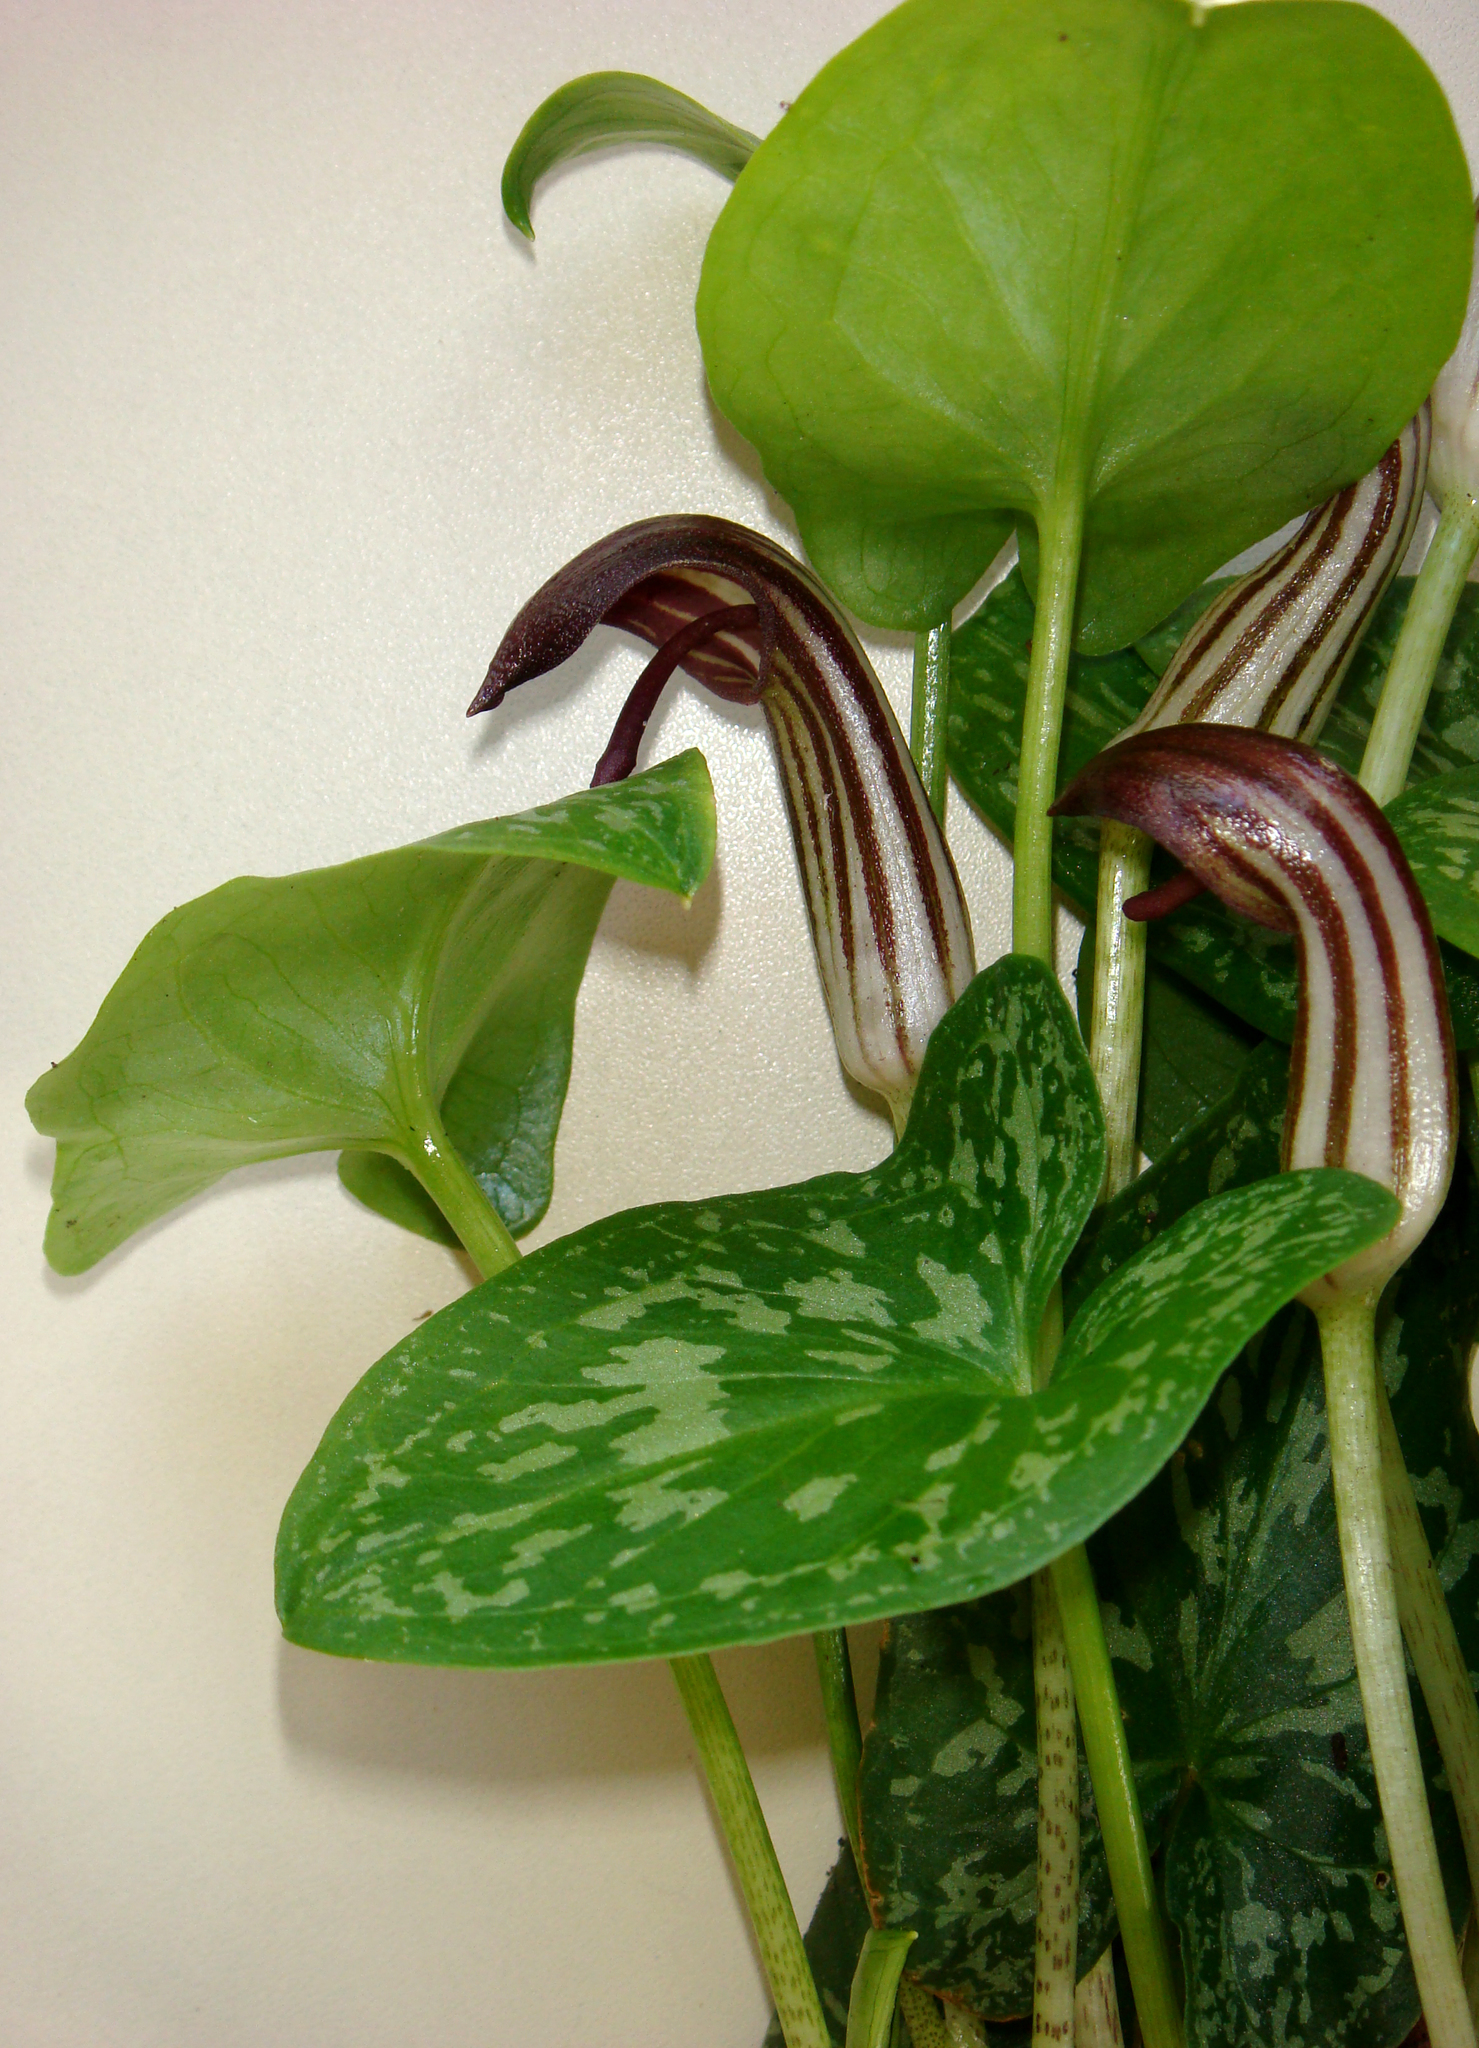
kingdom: Plantae
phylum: Tracheophyta
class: Liliopsida
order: Alismatales
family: Araceae
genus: Arisarum
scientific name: Arisarum vulgare
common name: Common arisarum
